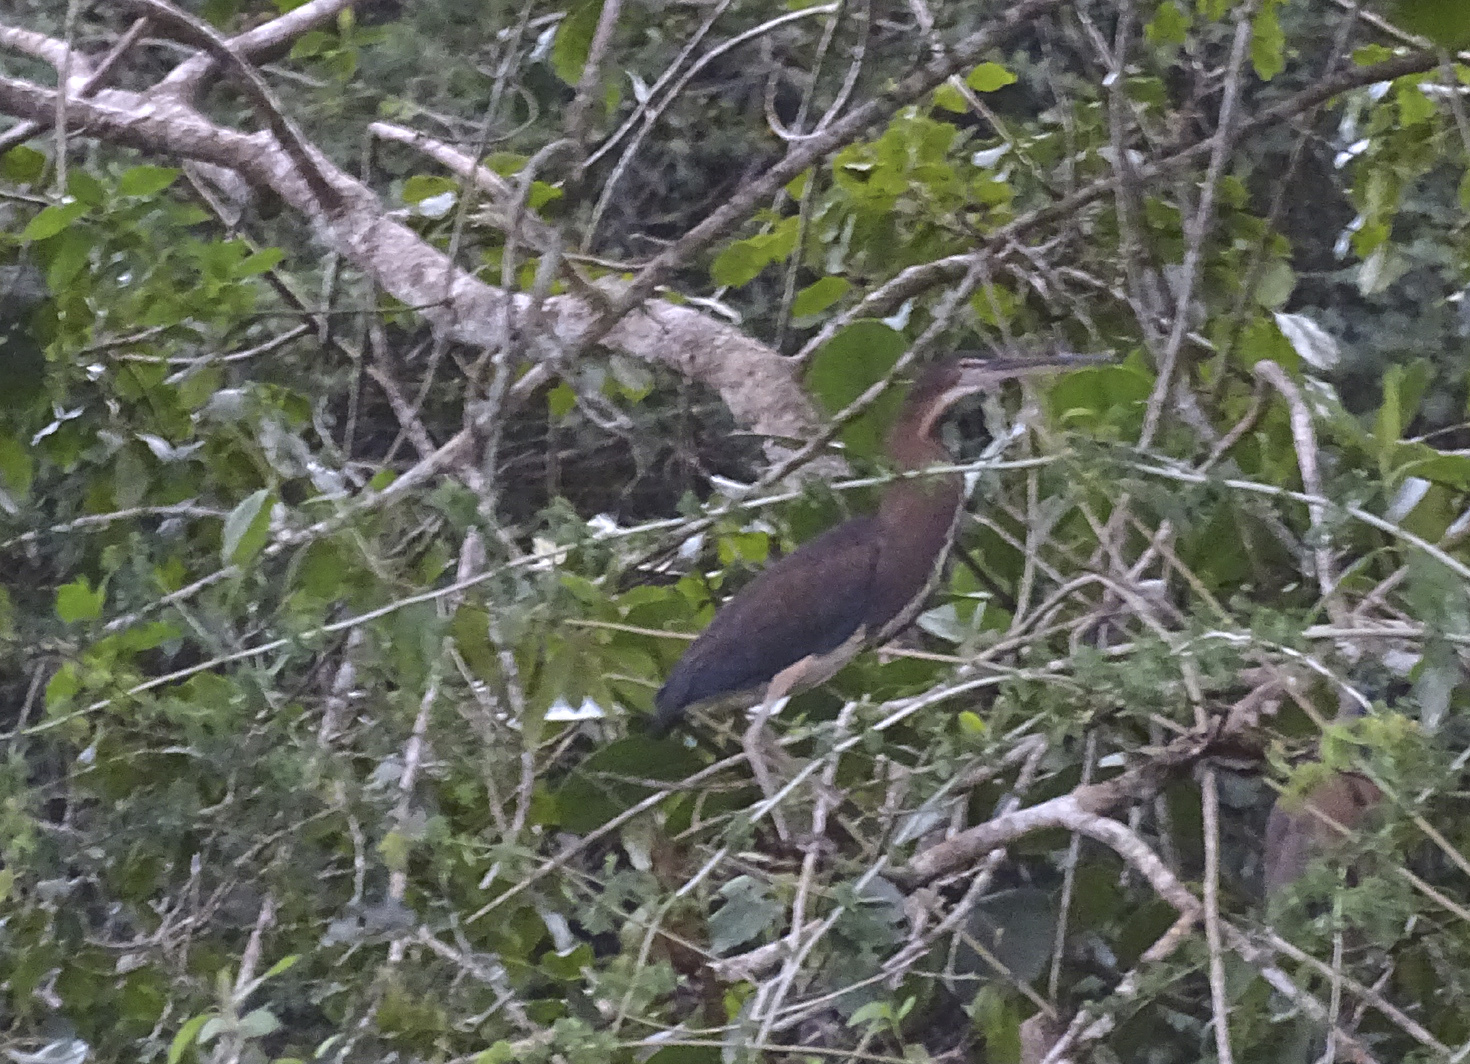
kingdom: Animalia
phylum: Chordata
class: Aves
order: Pelecaniformes
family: Ardeidae
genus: Agamia
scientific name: Agamia agami
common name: Agami heron
